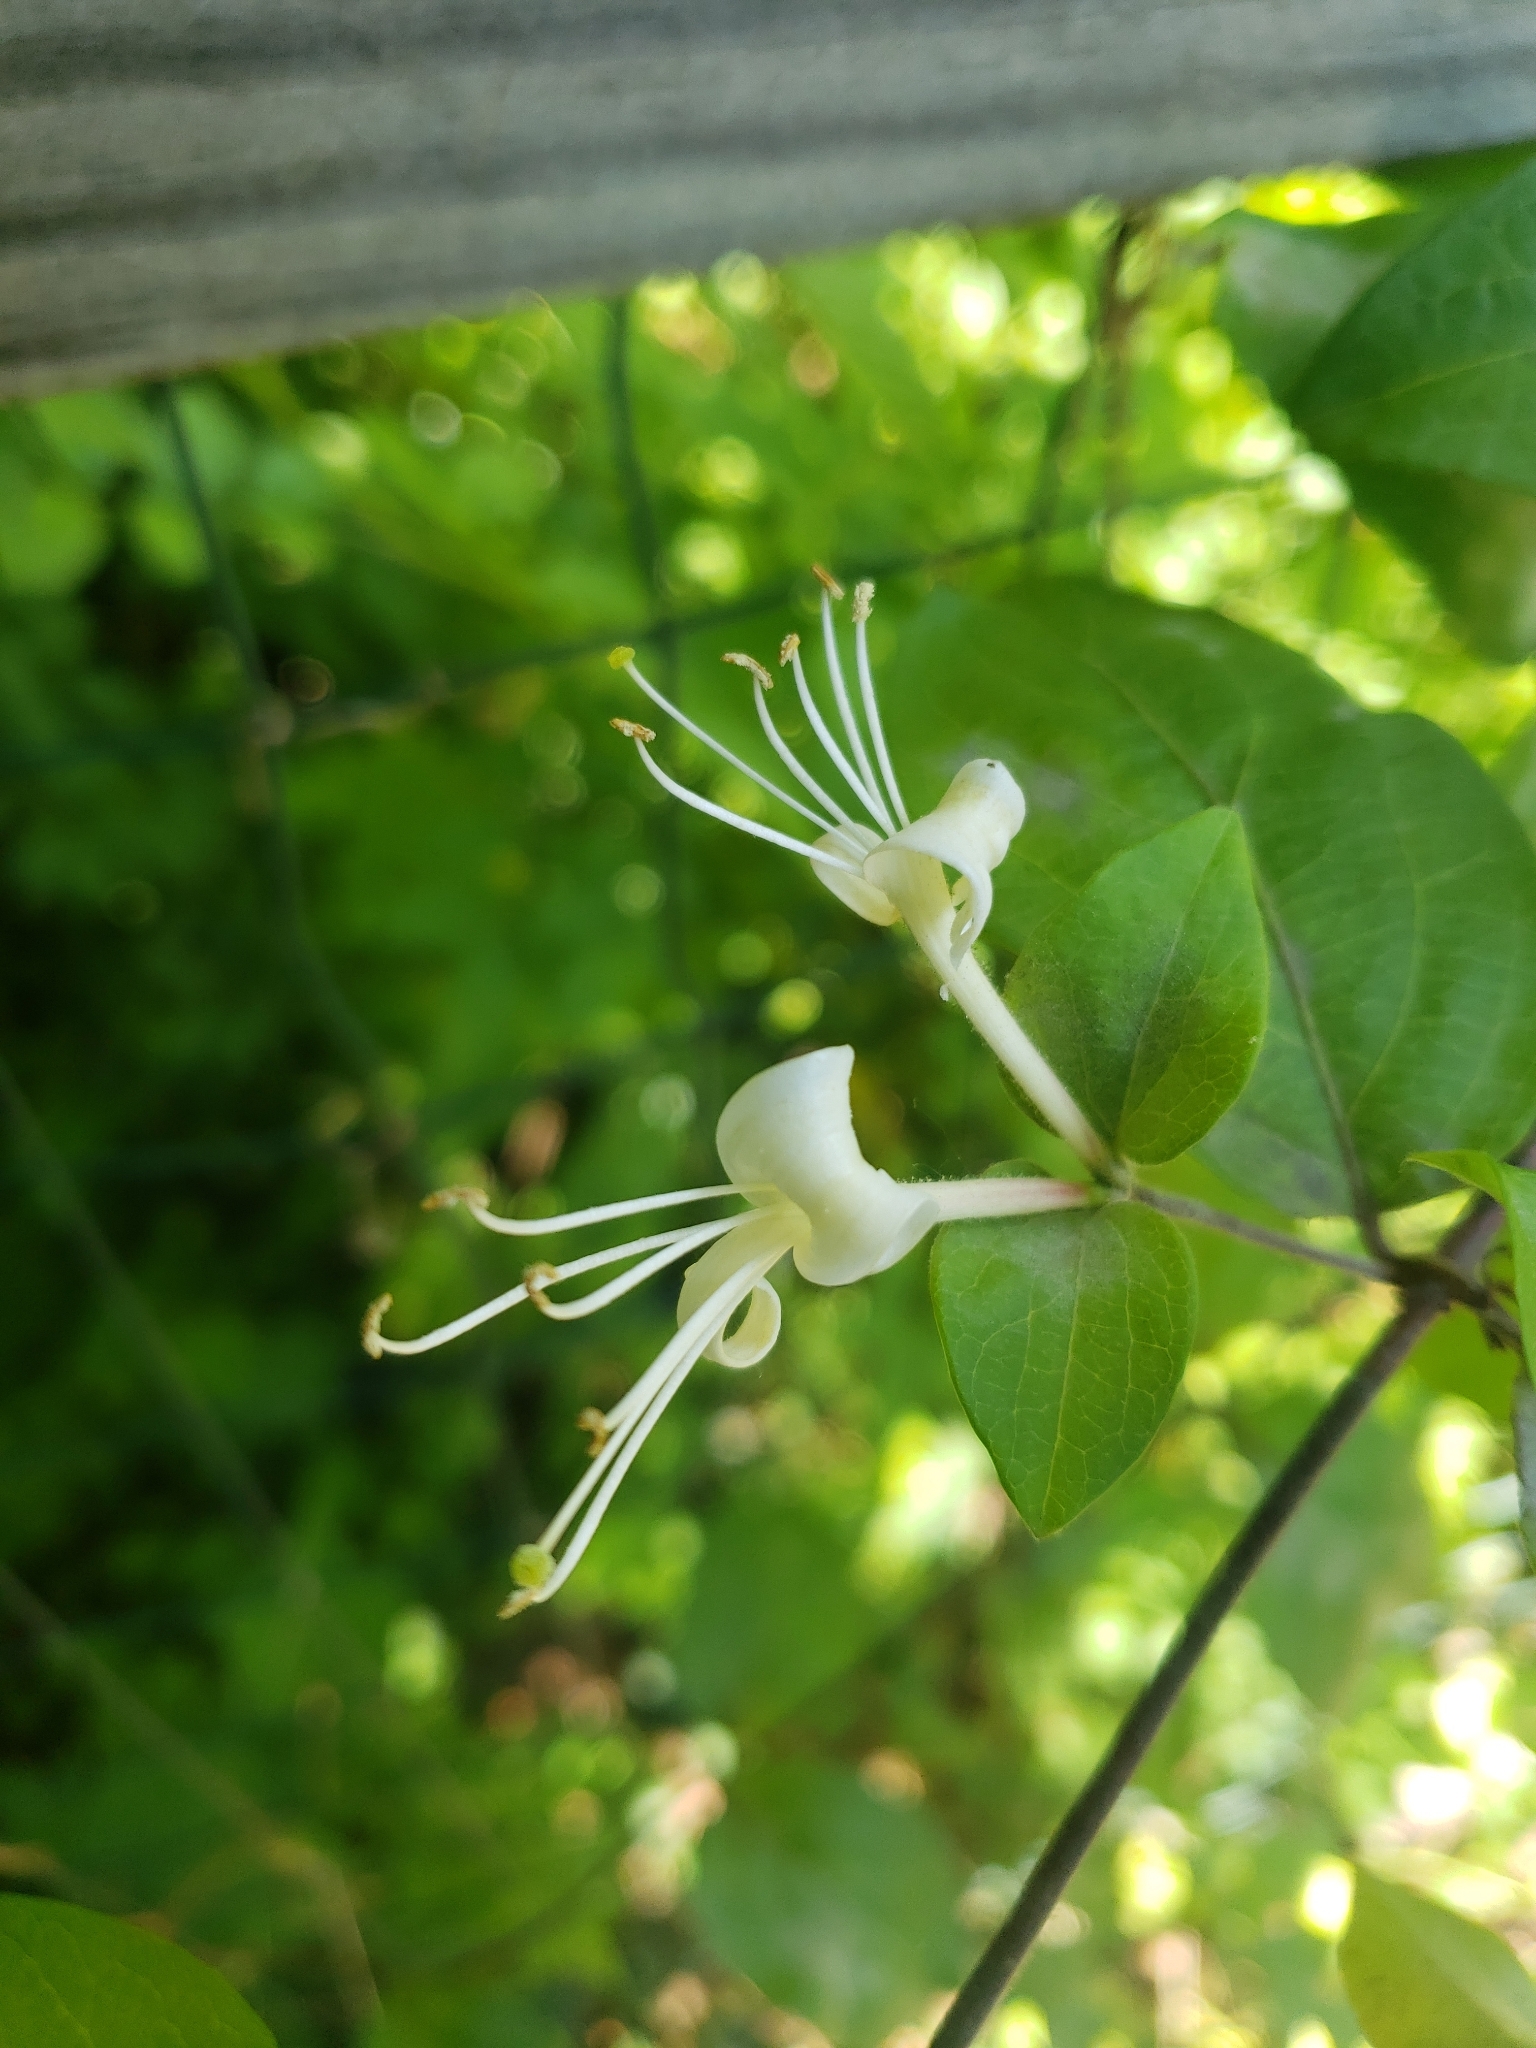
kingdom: Plantae
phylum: Tracheophyta
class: Magnoliopsida
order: Dipsacales
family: Caprifoliaceae
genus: Lonicera
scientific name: Lonicera japonica
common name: Japanese honeysuckle
